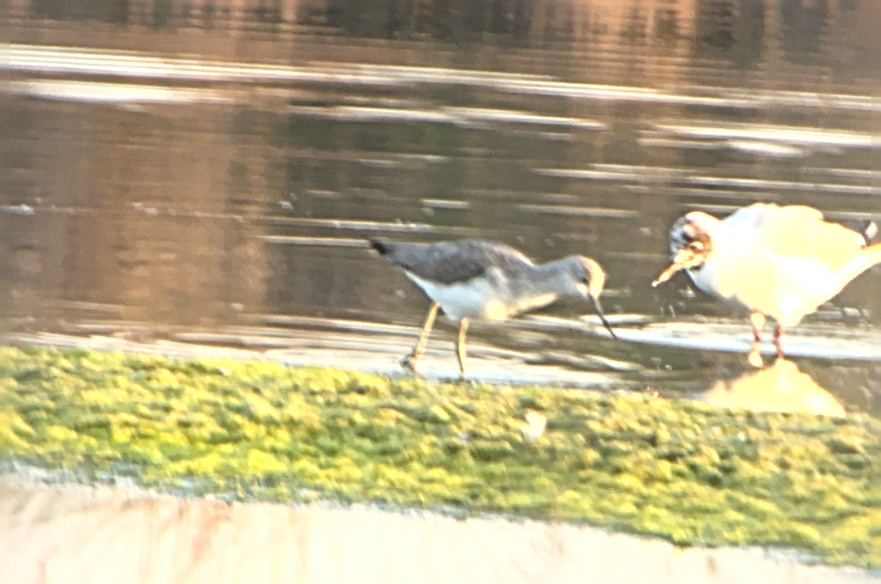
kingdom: Animalia
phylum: Chordata
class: Aves
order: Charadriiformes
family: Scolopacidae
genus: Tringa
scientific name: Tringa nebularia
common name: Common greenshank
